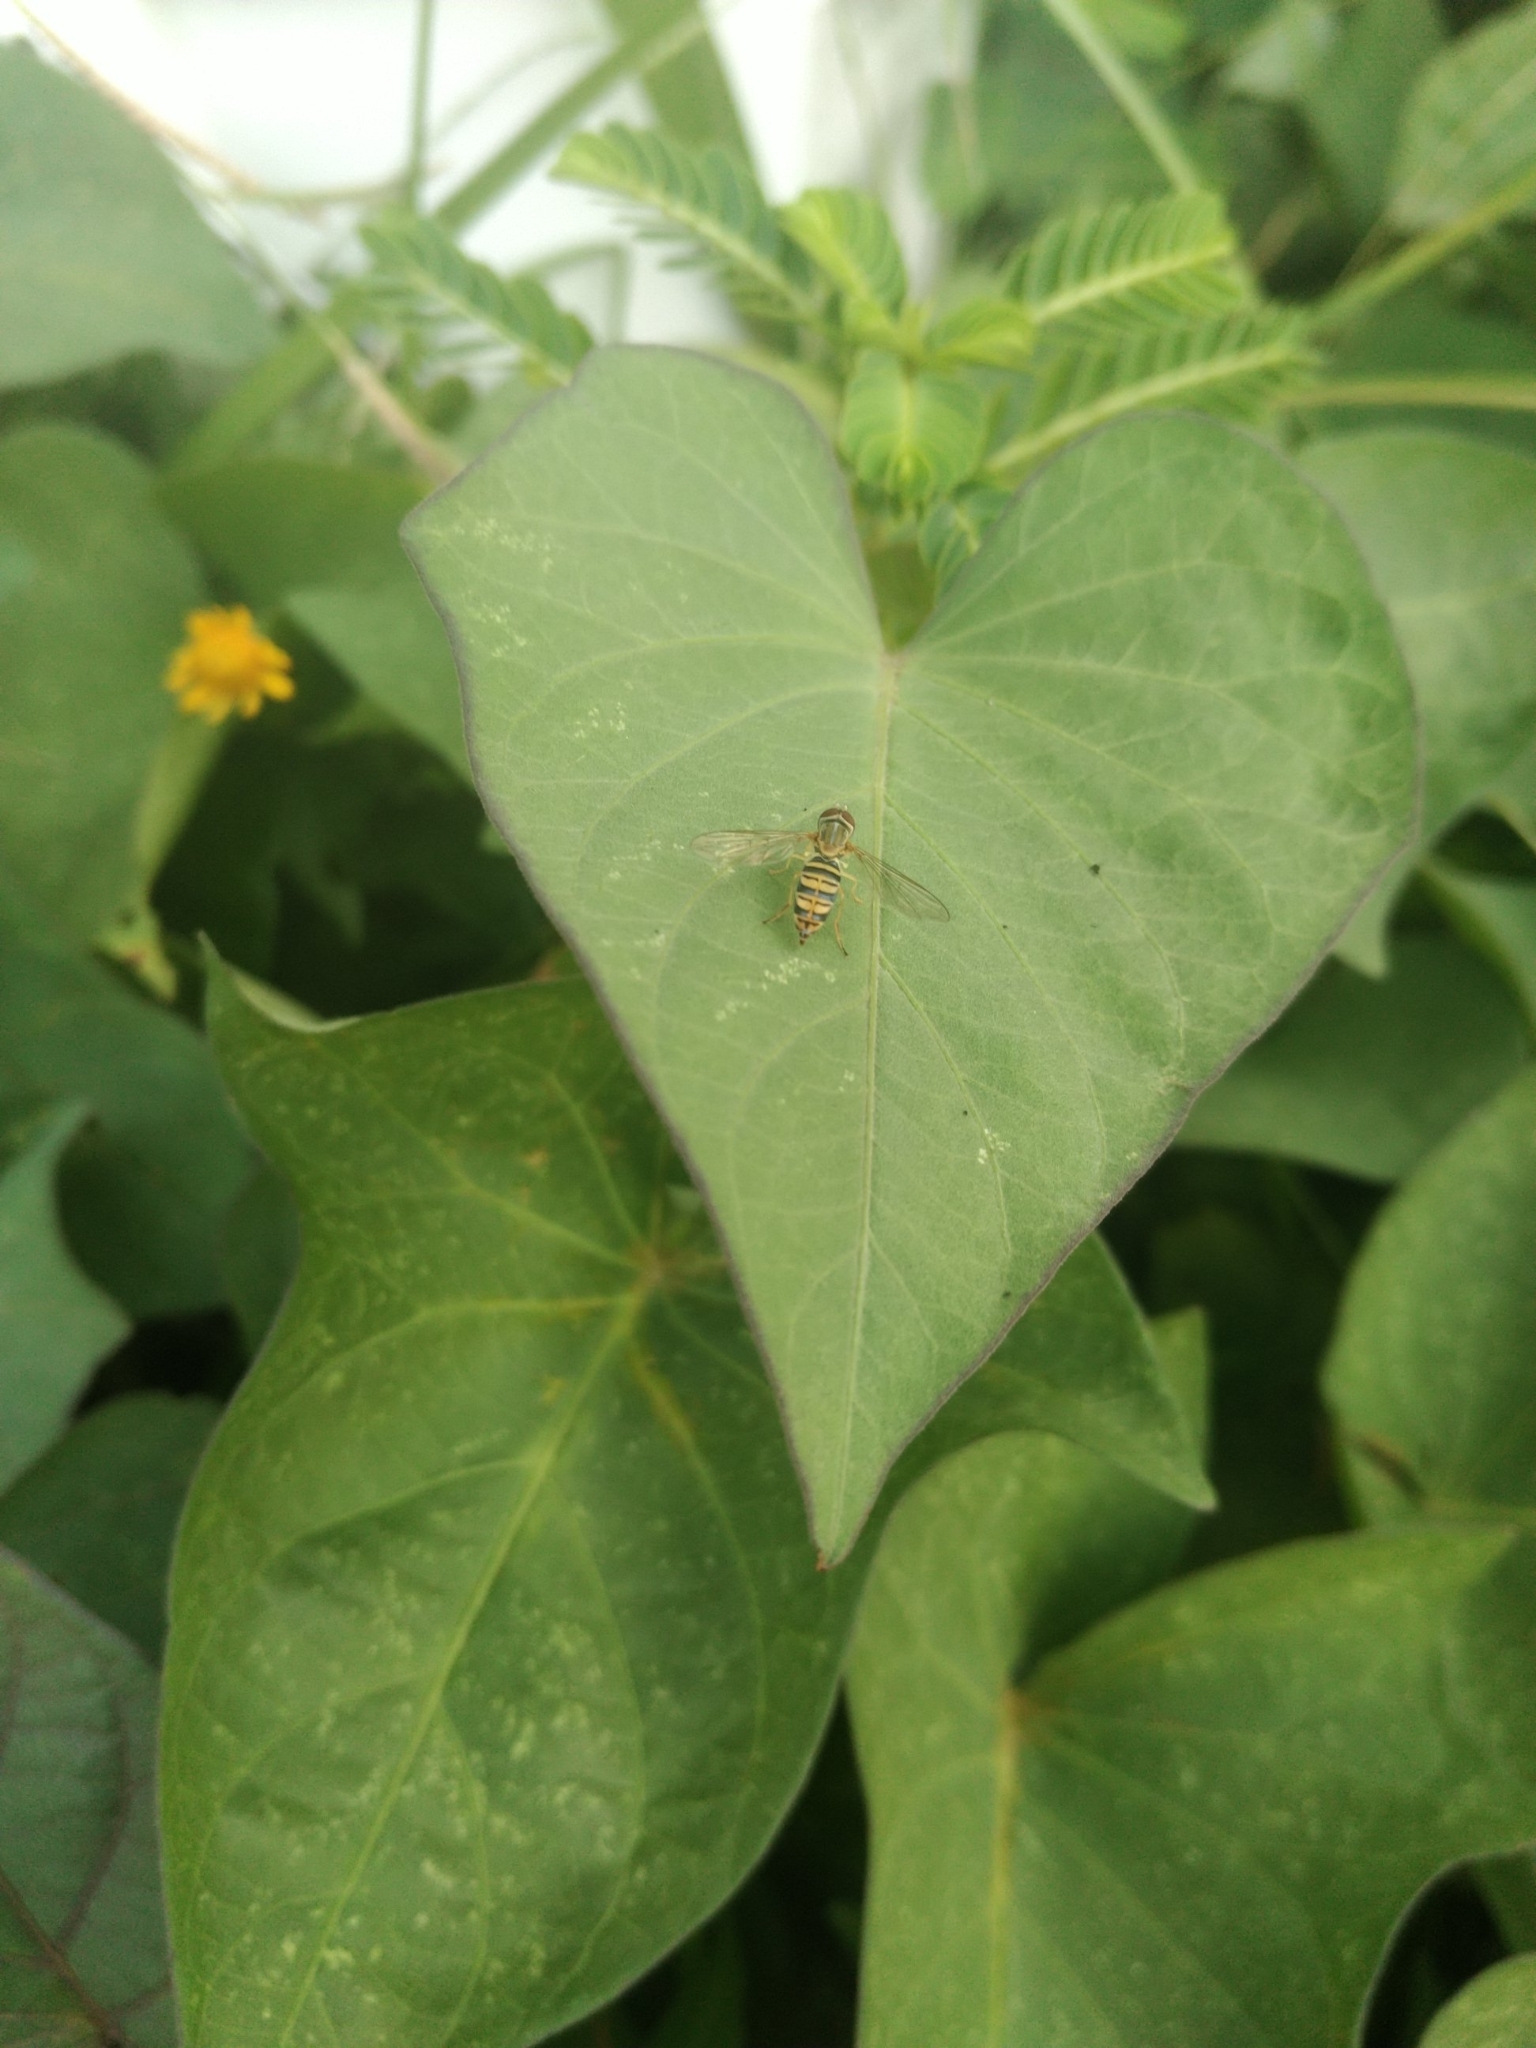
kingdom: Animalia
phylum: Arthropoda
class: Insecta
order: Diptera
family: Syrphidae
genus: Toxomerus
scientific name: Toxomerus politus
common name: Maize calligrapher
